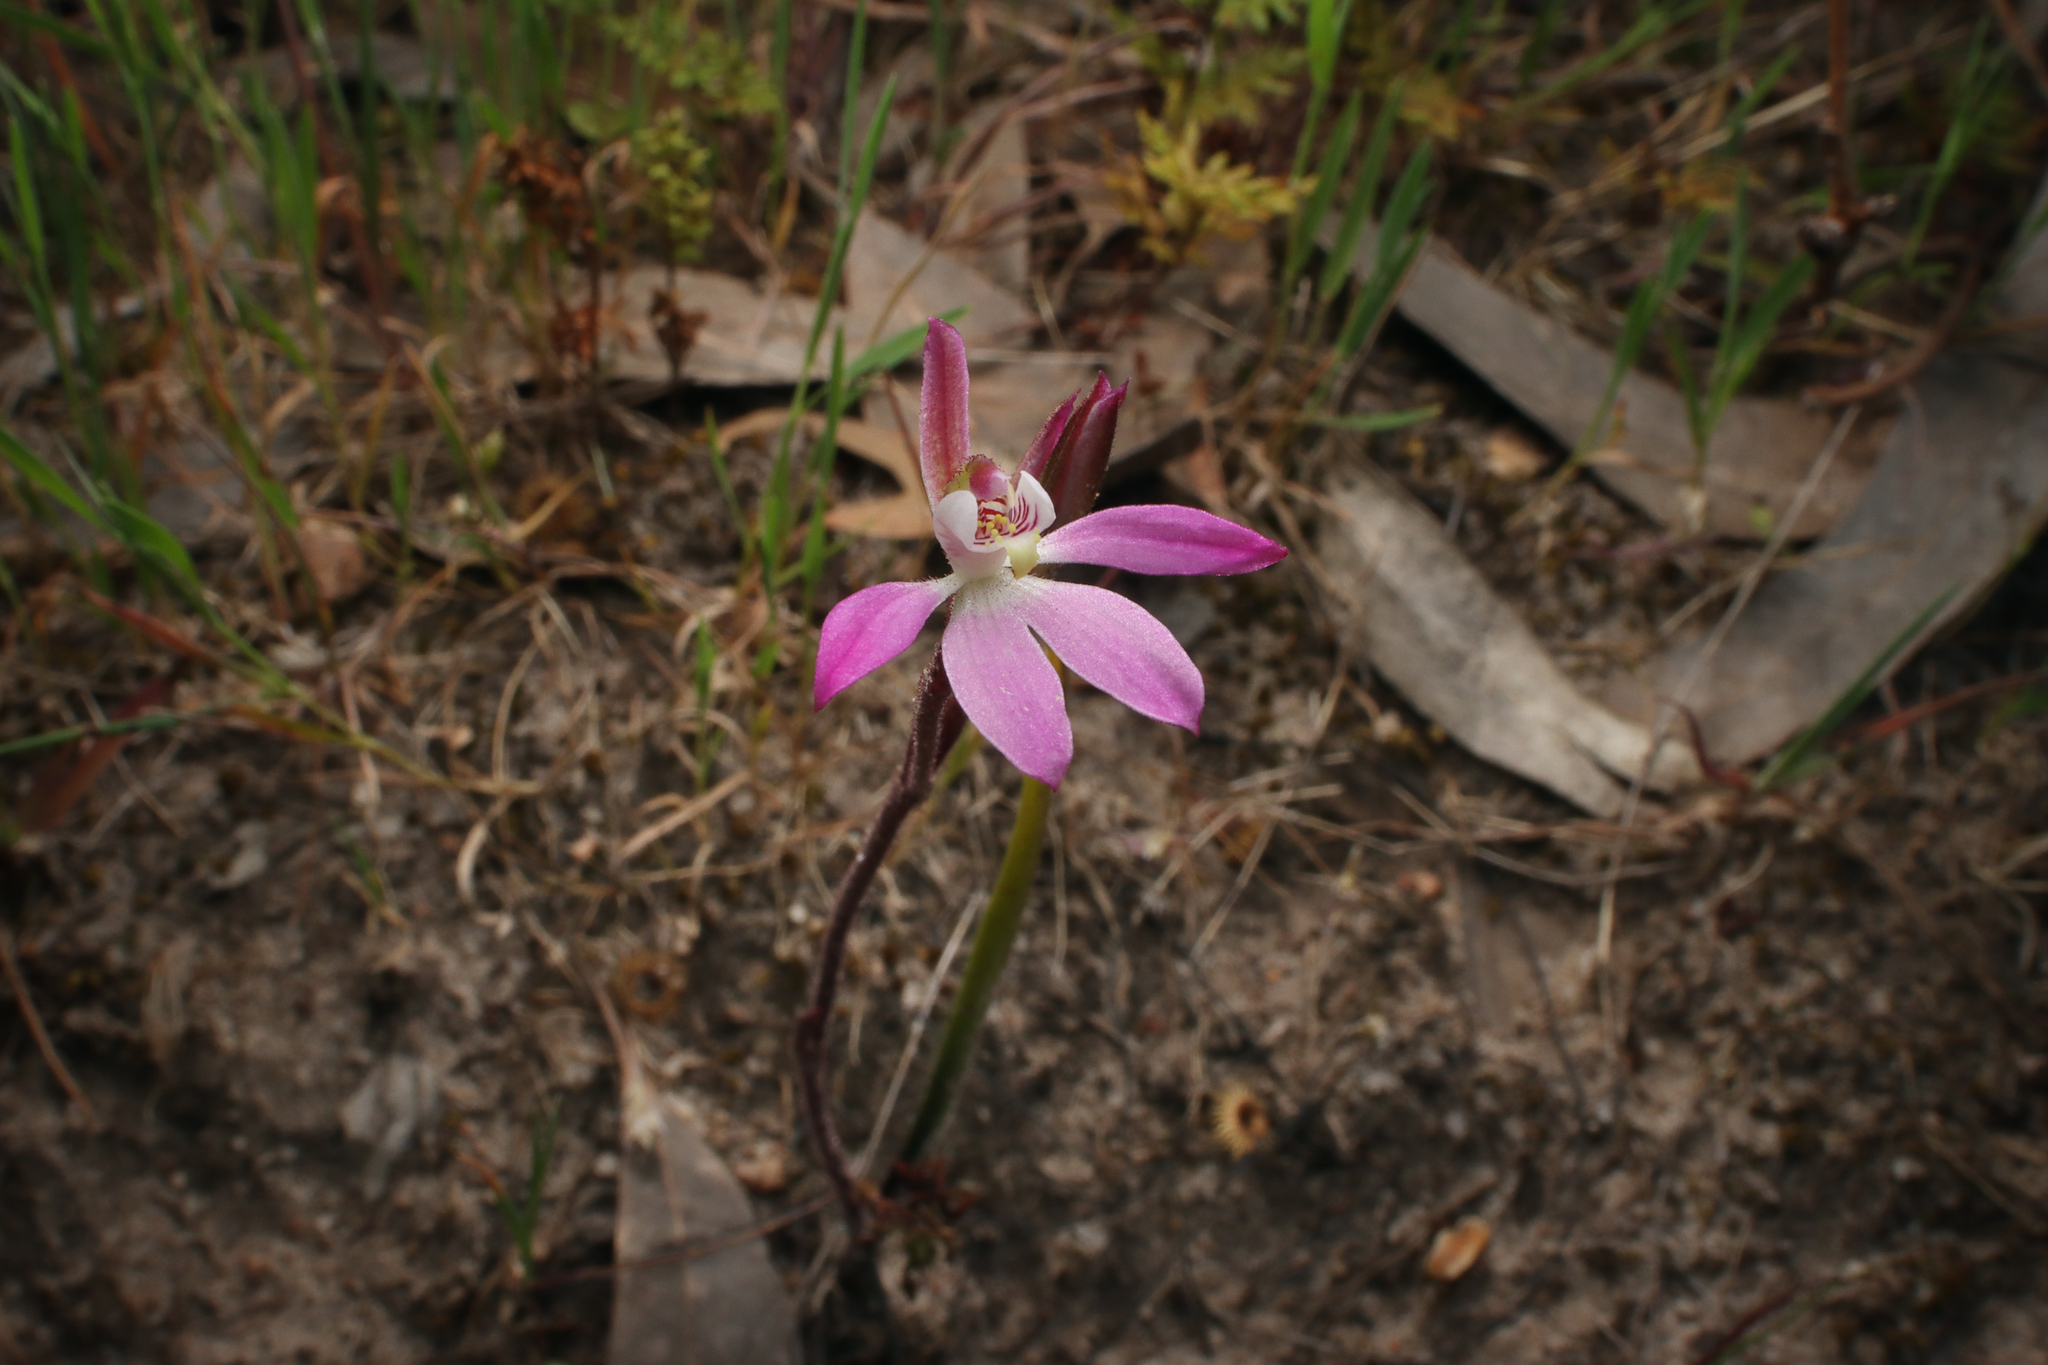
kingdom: Plantae
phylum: Tracheophyta
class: Liliopsida
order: Asparagales
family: Orchidaceae
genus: Caladenia
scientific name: Caladenia carnea
